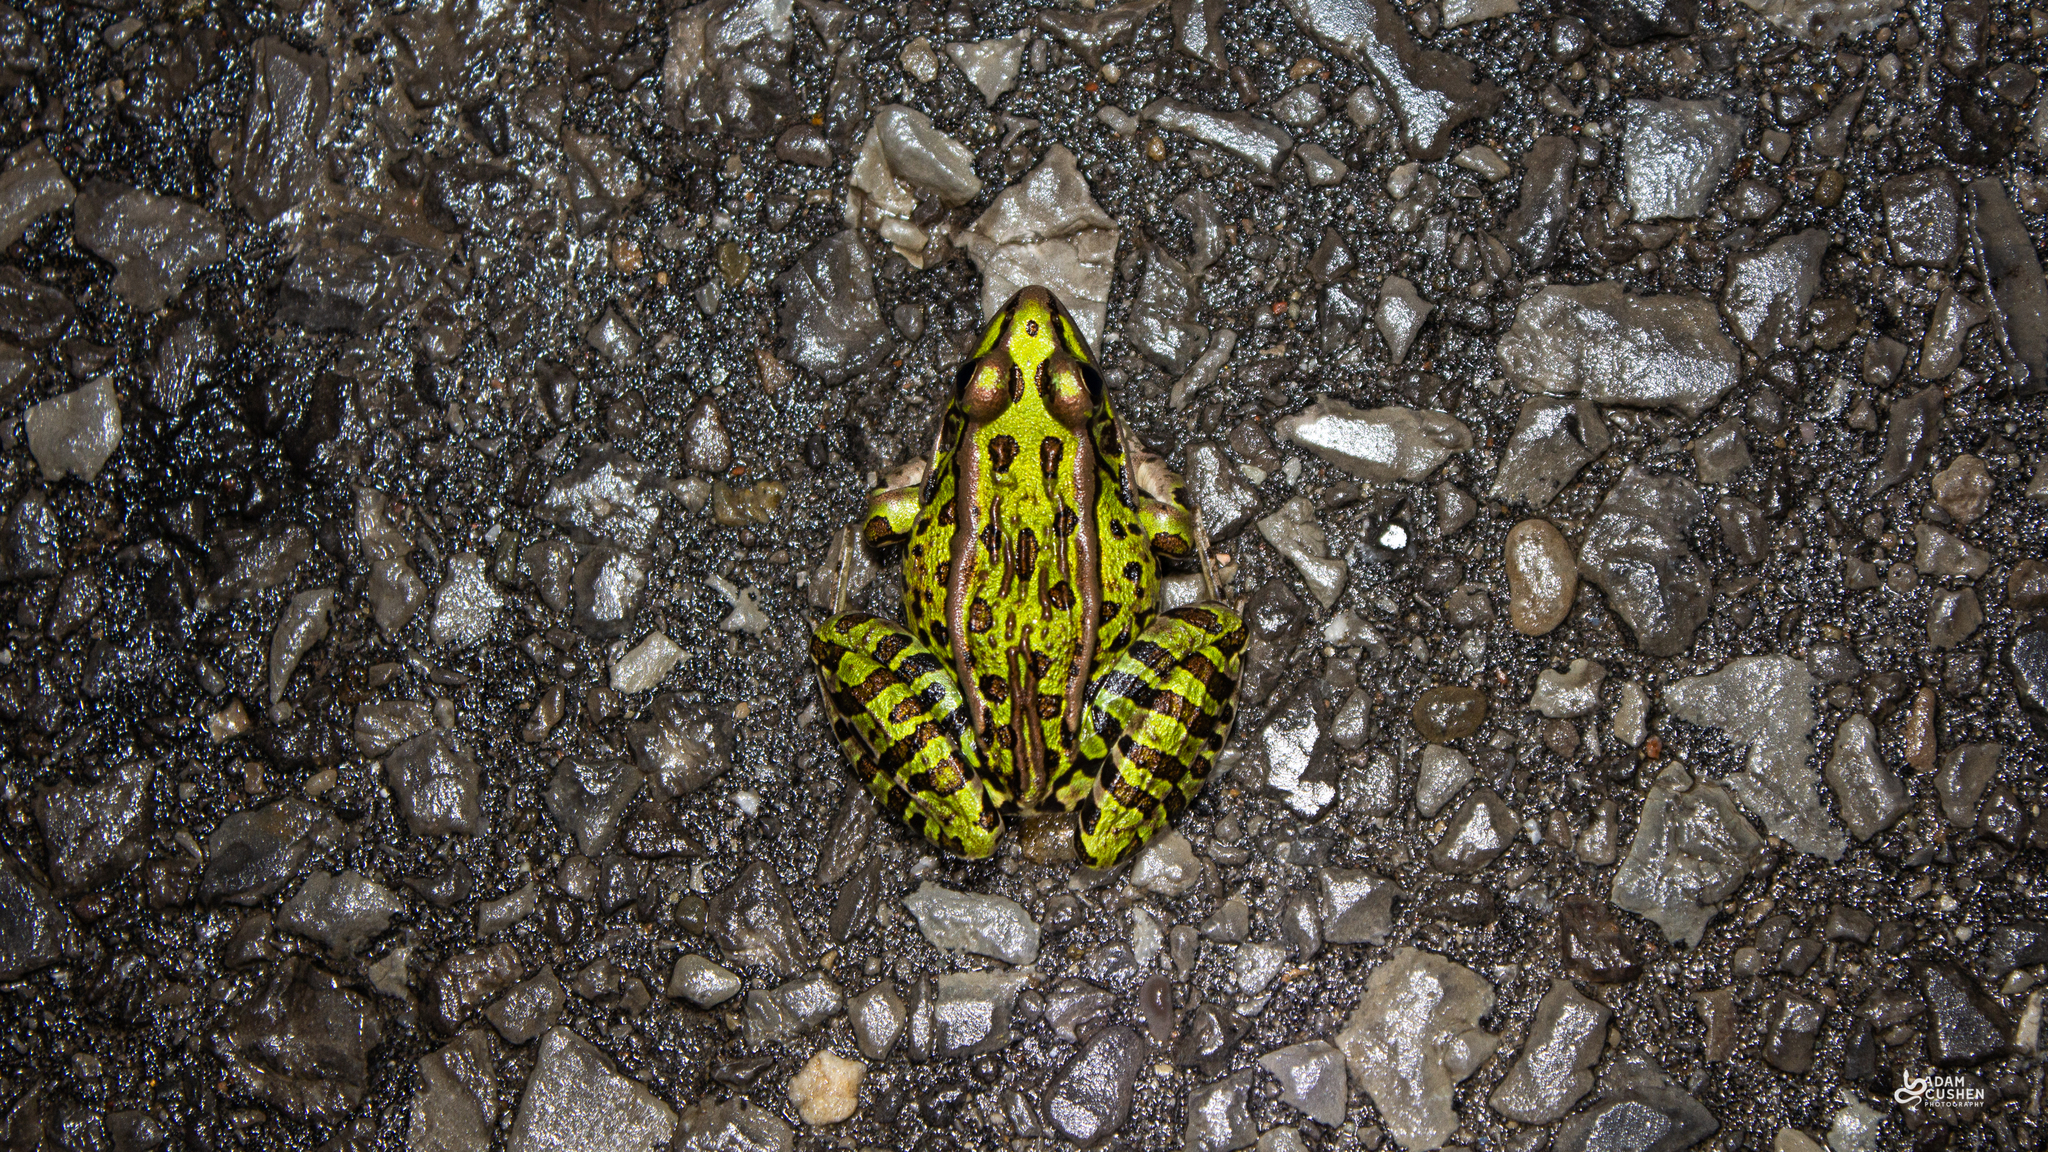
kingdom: Animalia
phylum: Chordata
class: Amphibia
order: Anura
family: Ranidae
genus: Lithobates
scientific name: Lithobates pipiens
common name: Northern leopard frog
